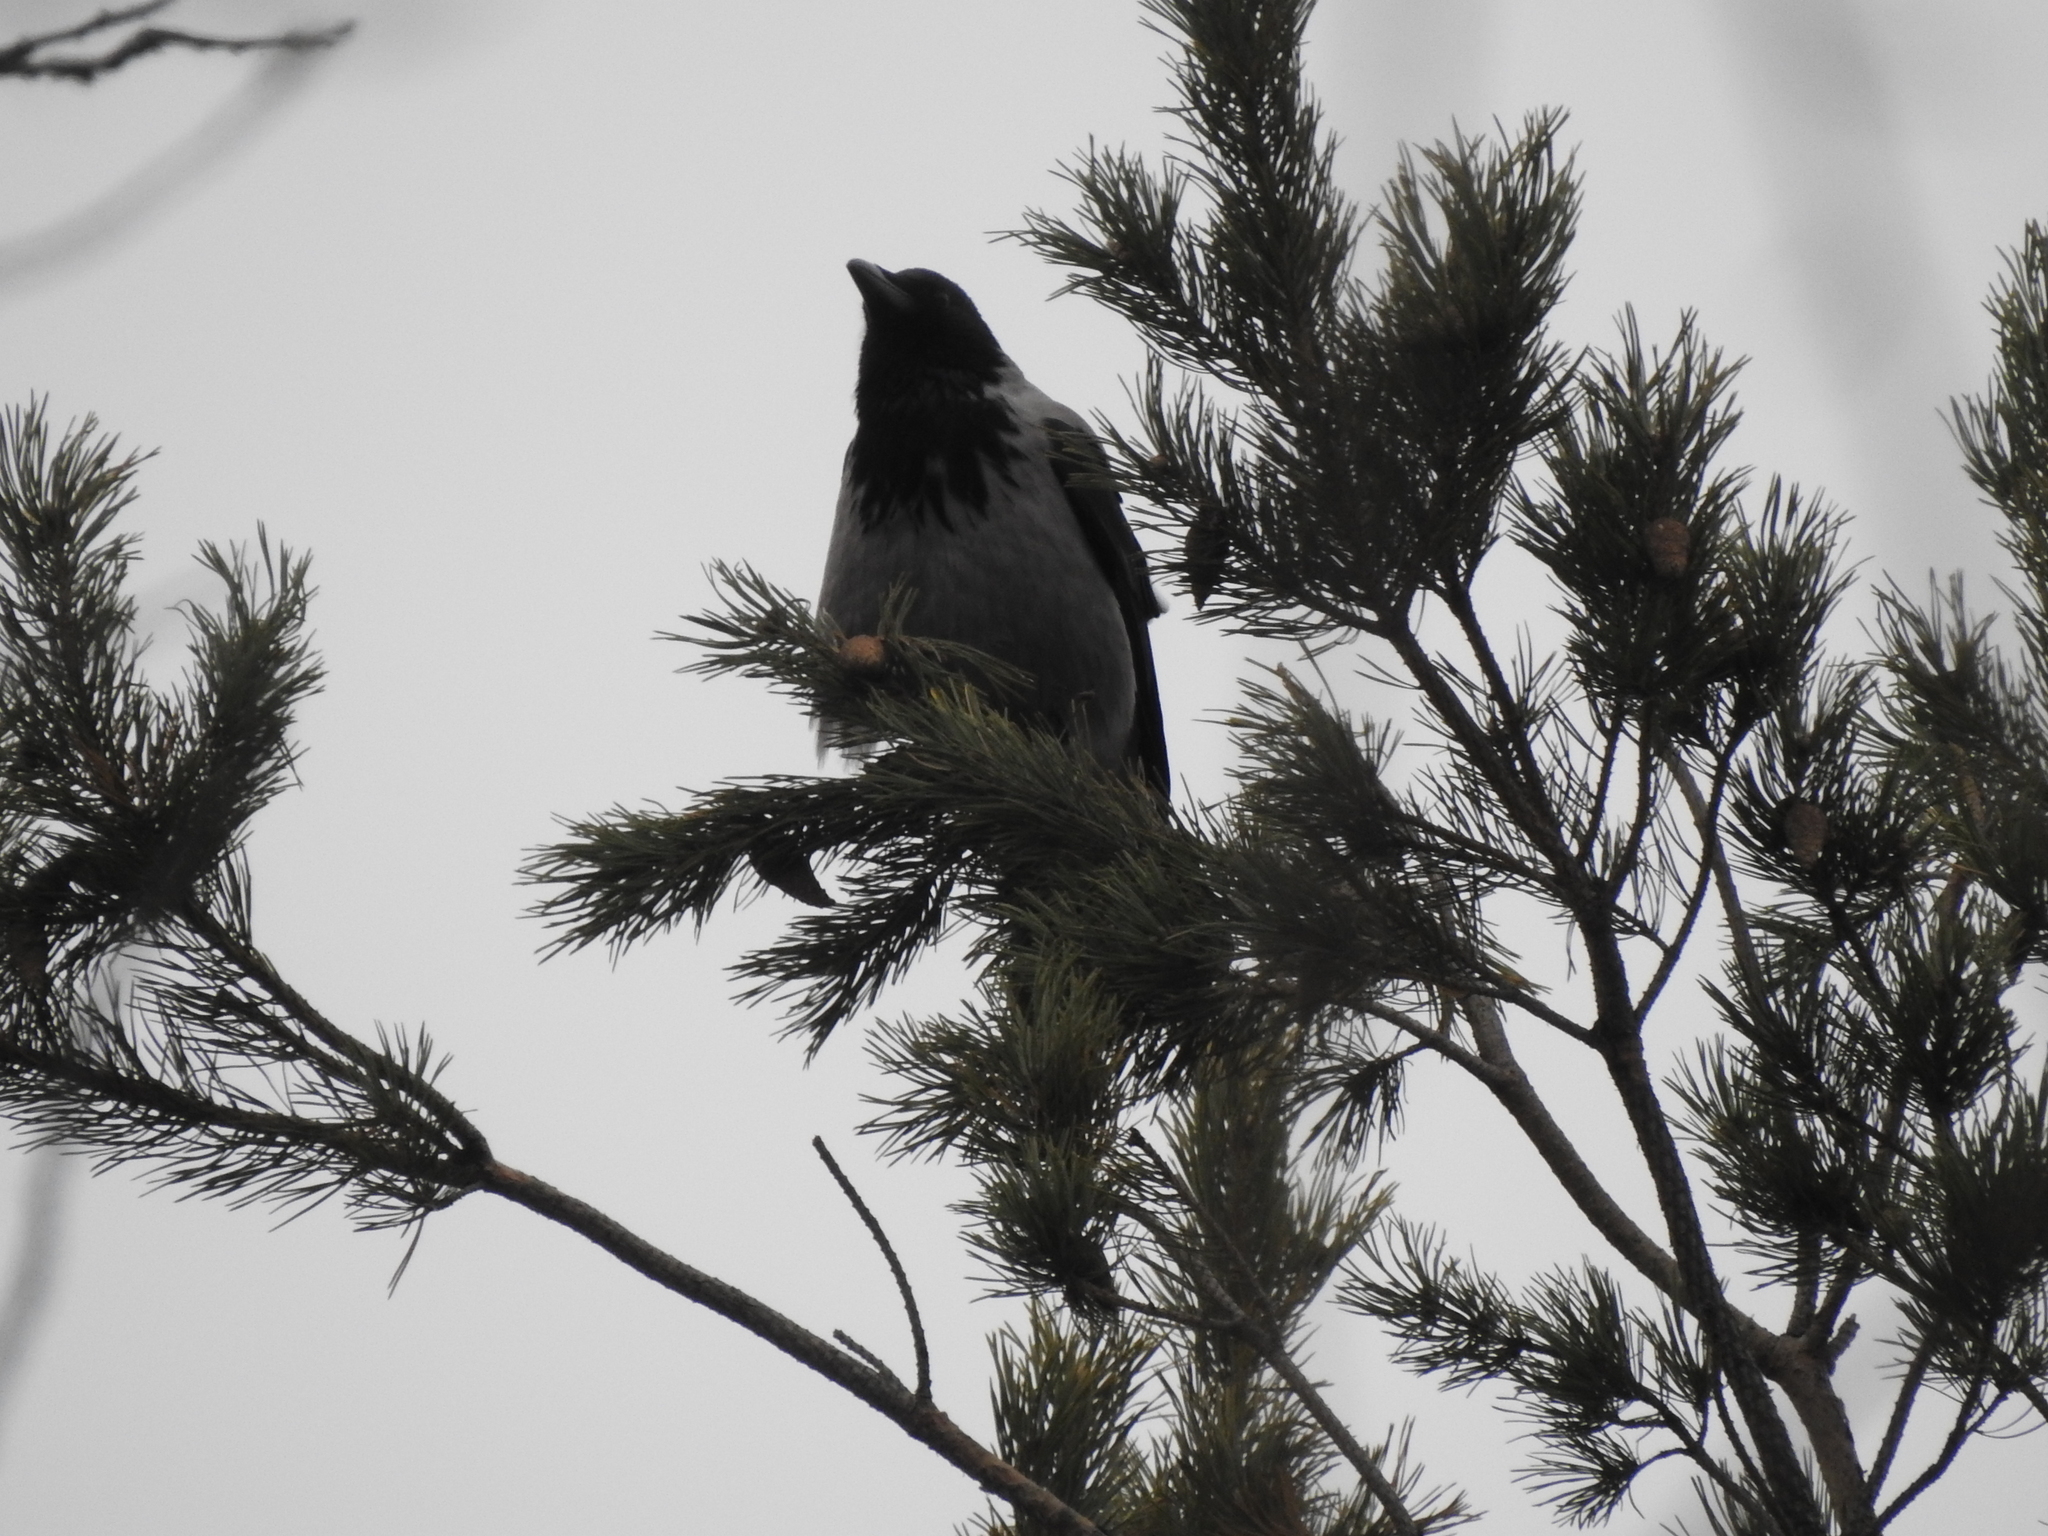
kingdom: Animalia
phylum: Chordata
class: Aves
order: Passeriformes
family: Corvidae
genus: Corvus
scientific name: Corvus cornix
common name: Hooded crow
